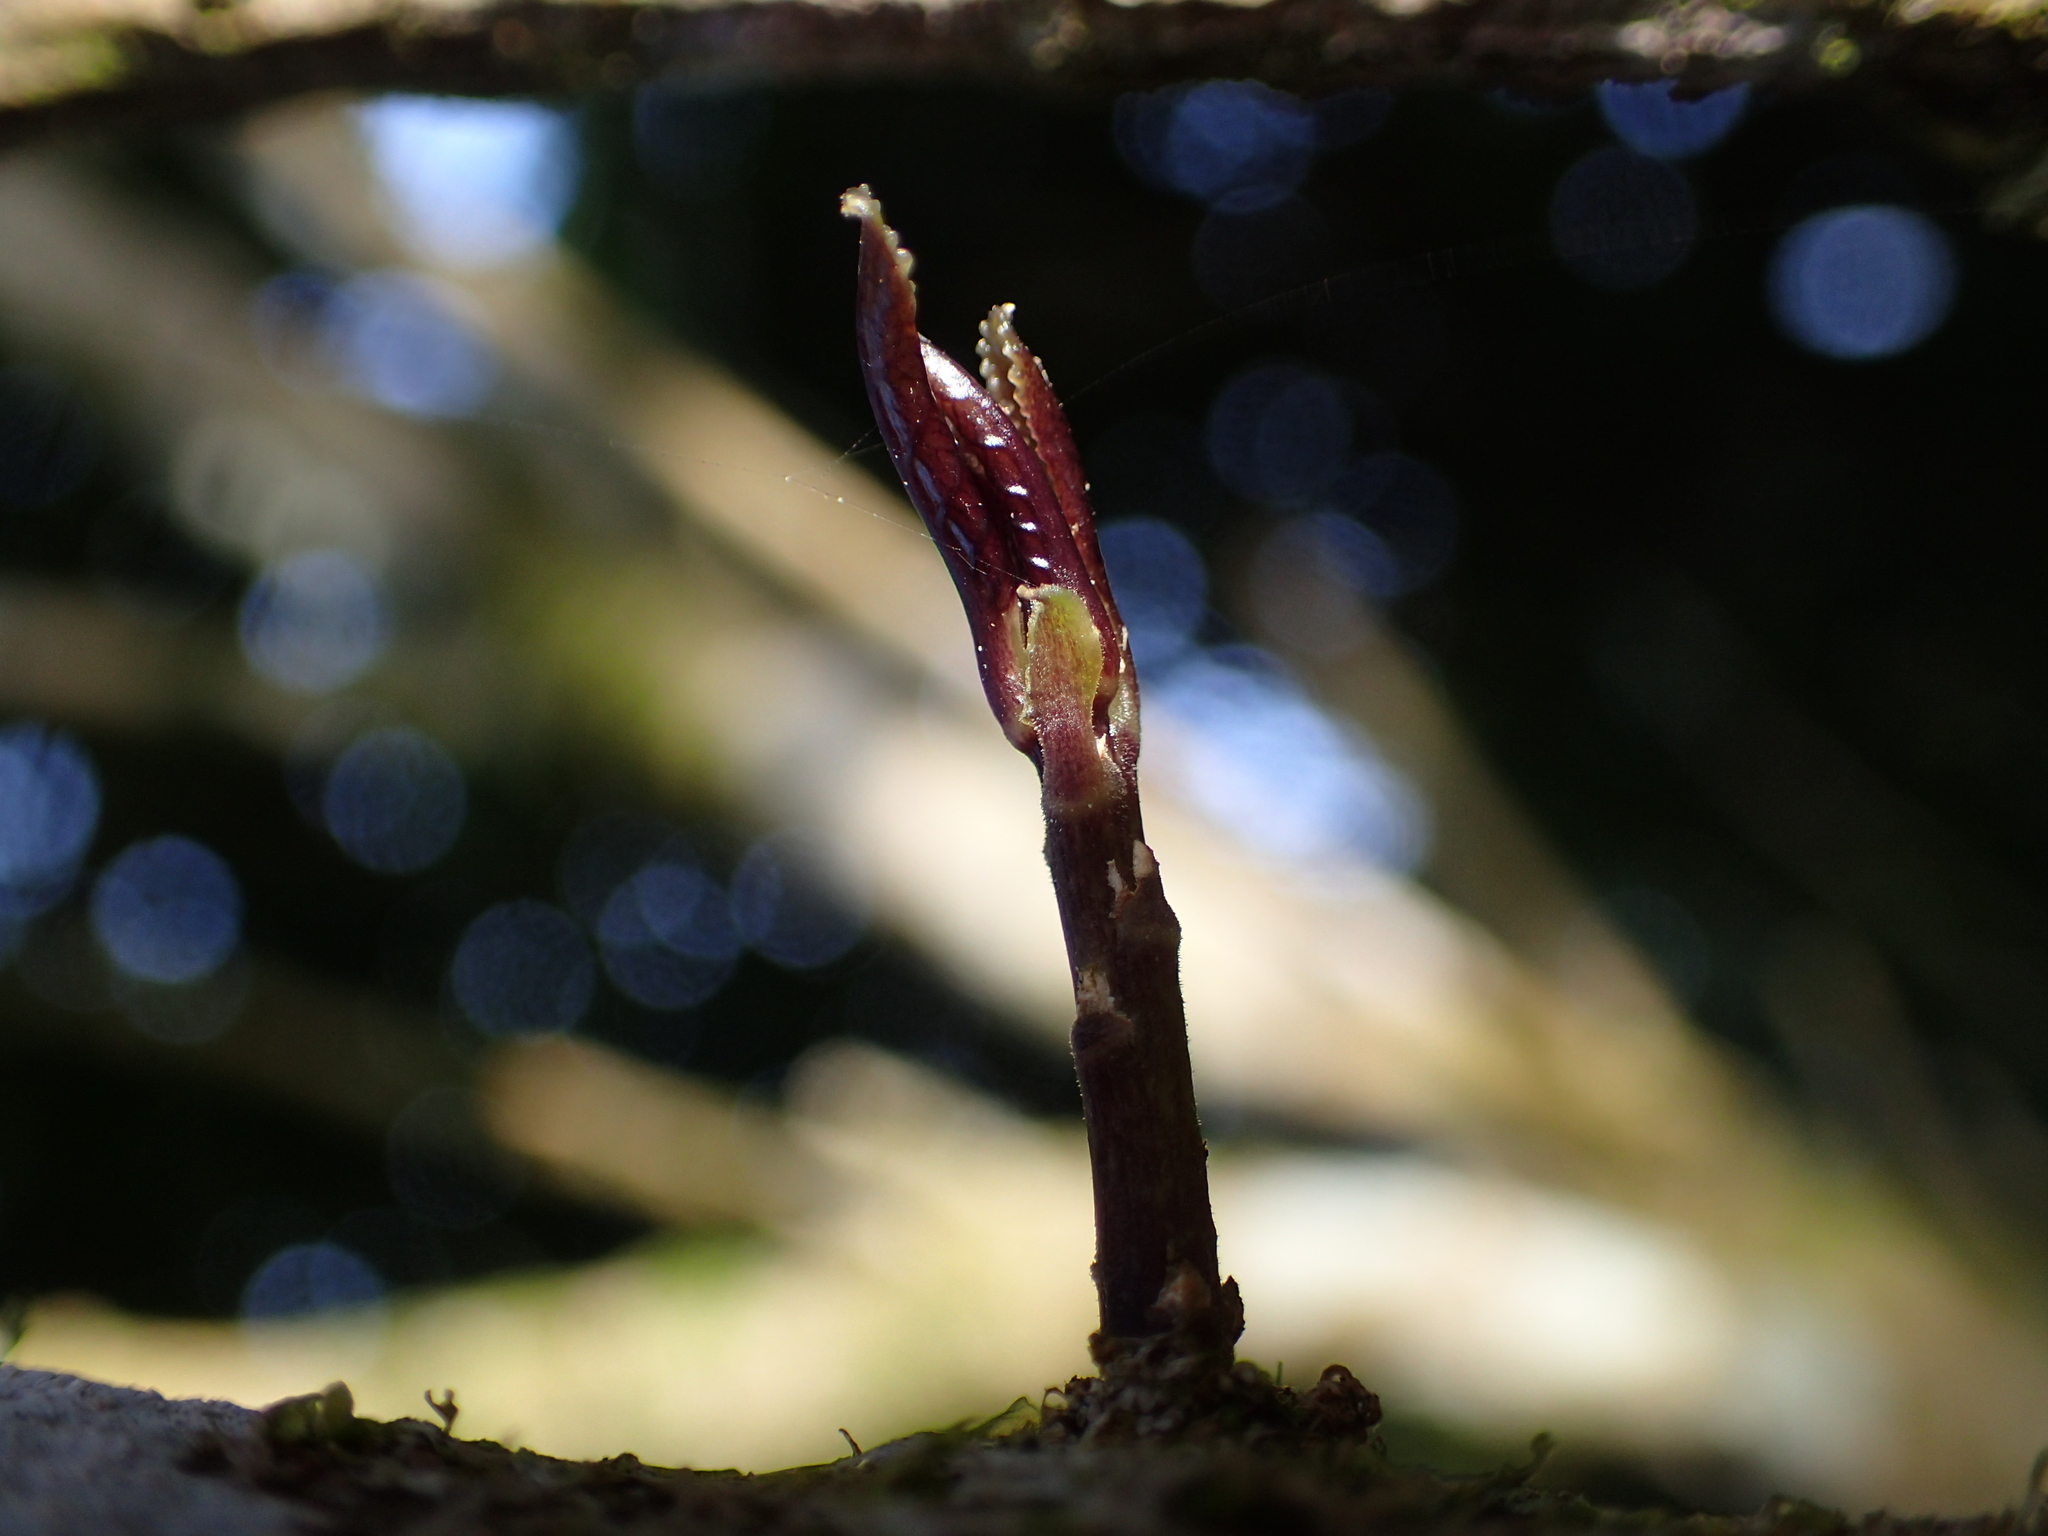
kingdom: Plantae
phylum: Tracheophyta
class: Magnoliopsida
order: Malpighiales
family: Violaceae
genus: Melicytus
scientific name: Melicytus ramiflorus
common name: Mahoe
